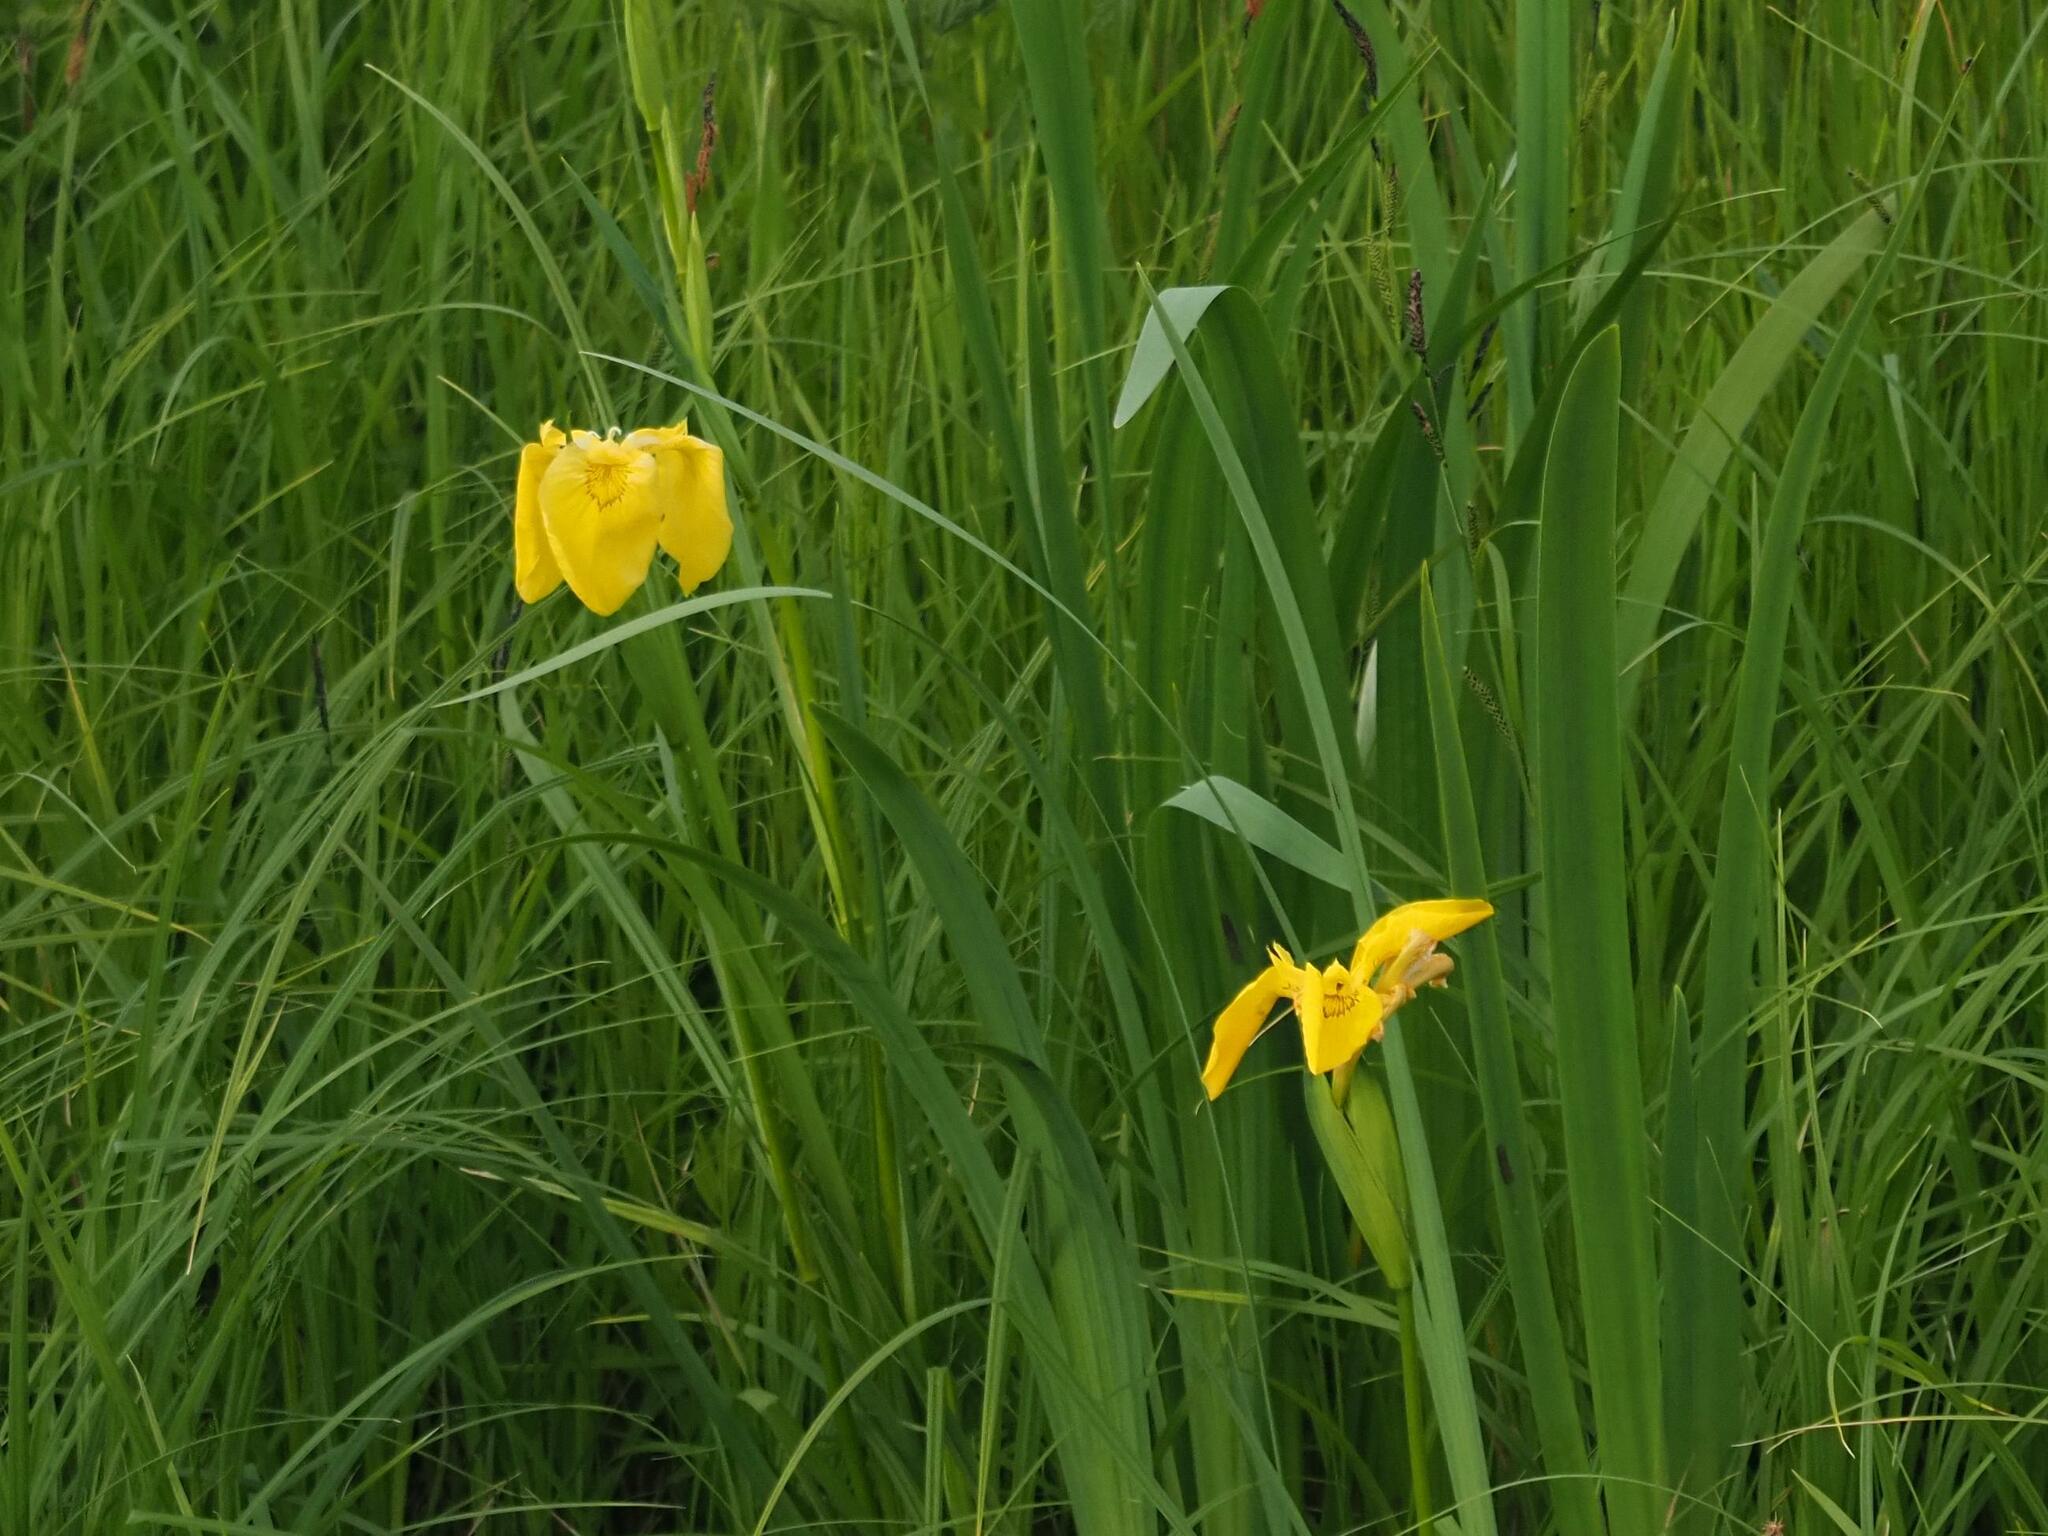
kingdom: Plantae
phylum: Tracheophyta
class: Liliopsida
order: Asparagales
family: Iridaceae
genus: Iris
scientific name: Iris pseudacorus
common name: Yellow flag
